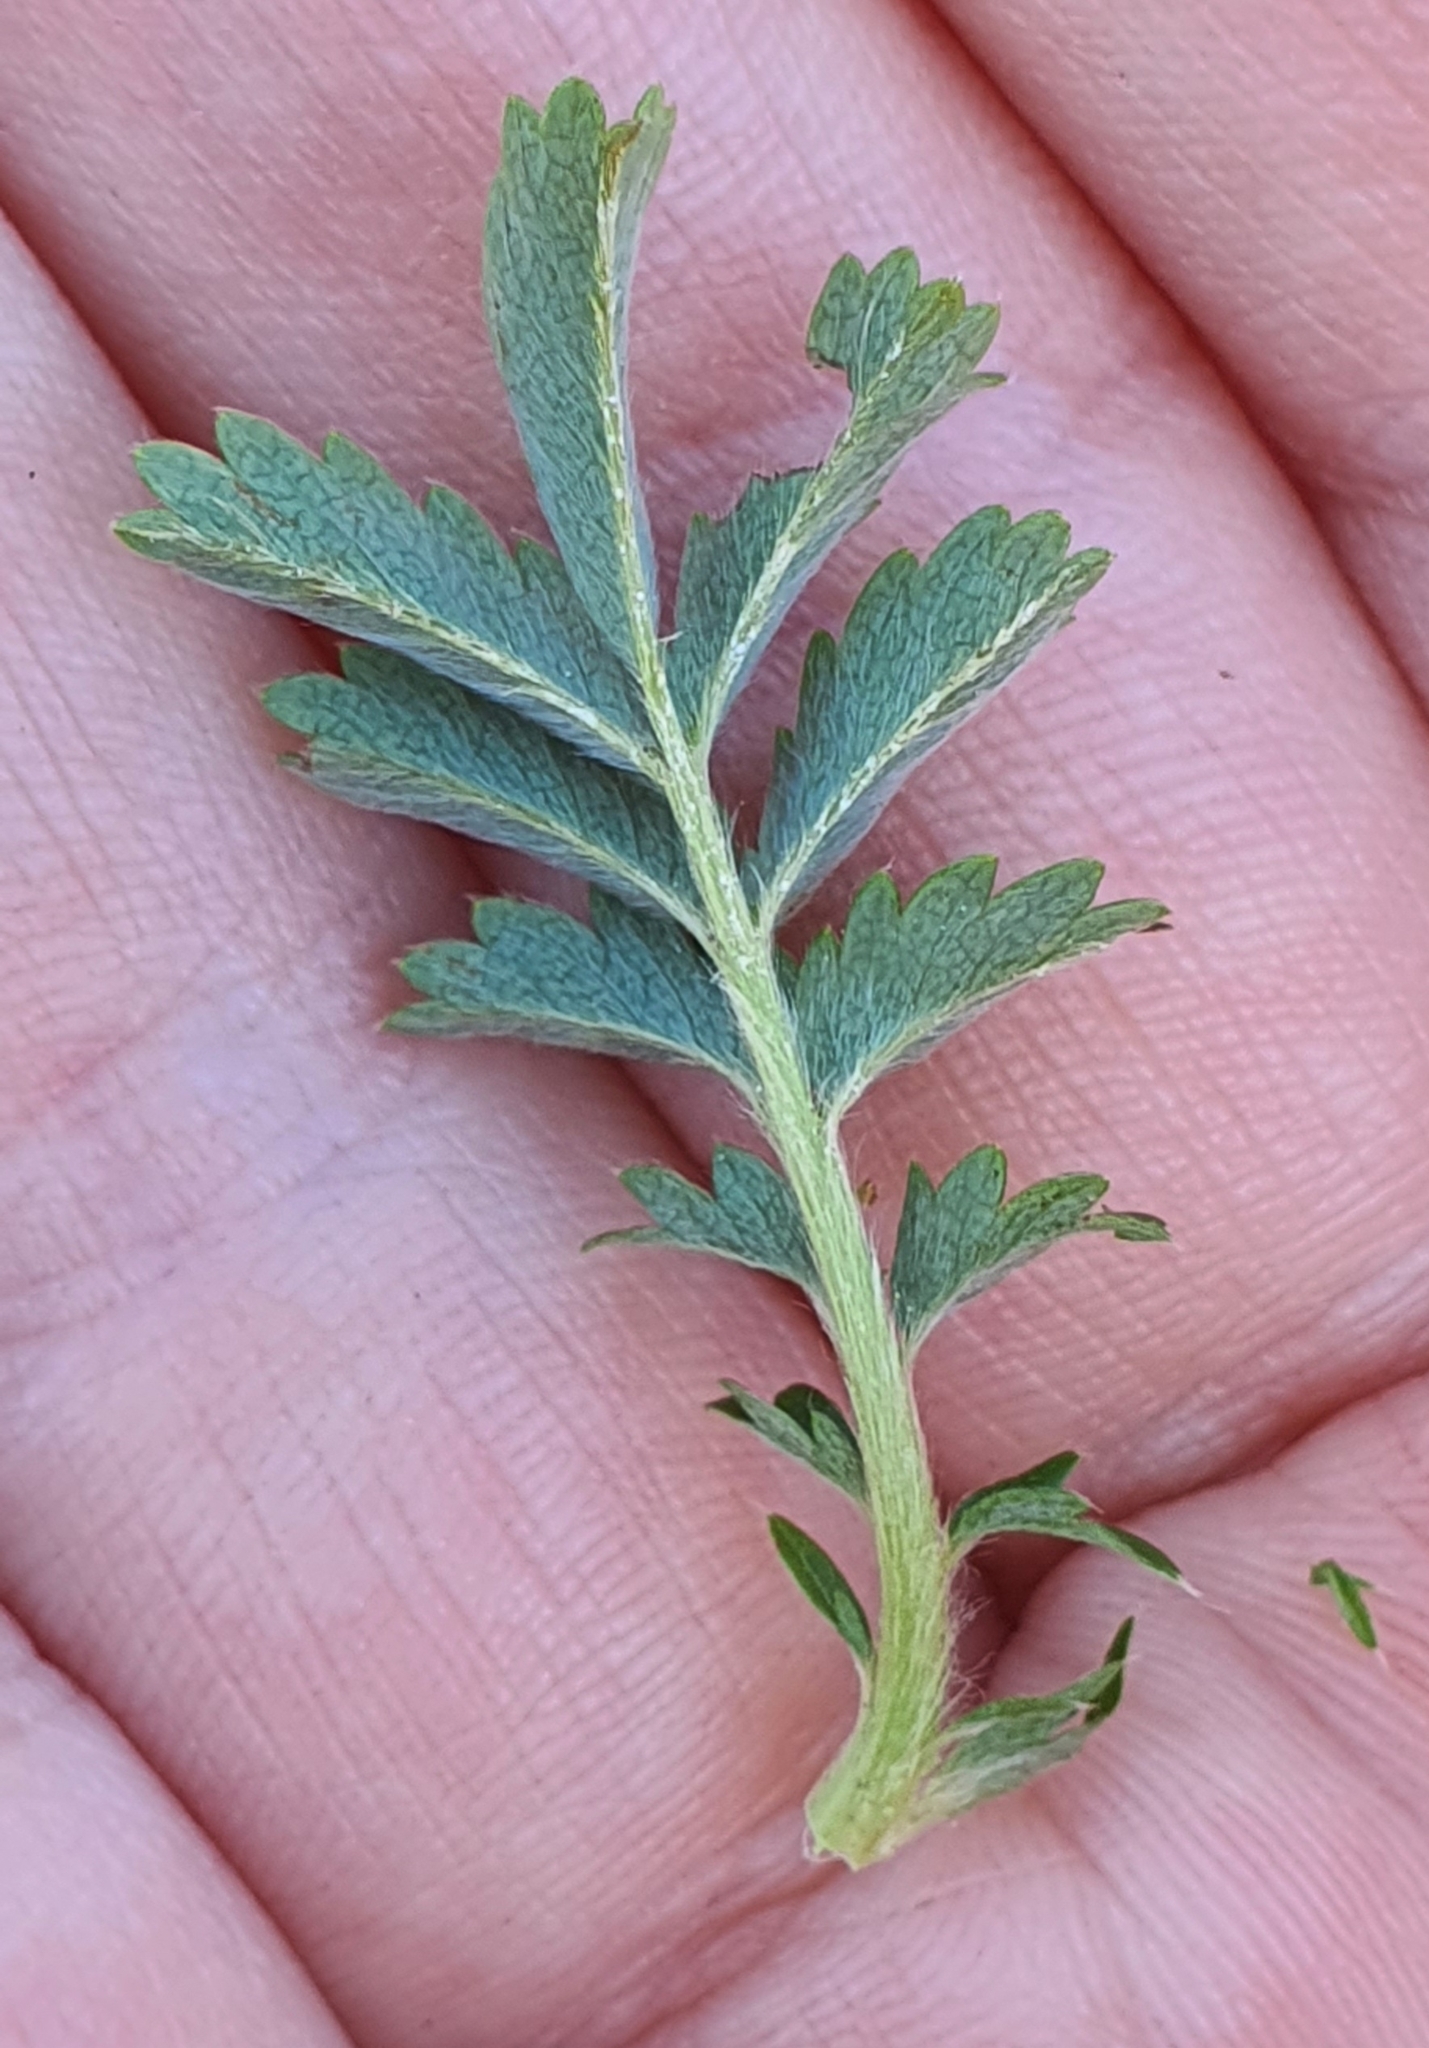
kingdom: Plantae
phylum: Tracheophyta
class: Magnoliopsida
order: Rosales
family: Rosaceae
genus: Acaena
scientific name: Acaena novae-zelandiae
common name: Pirri-pirri-bur
